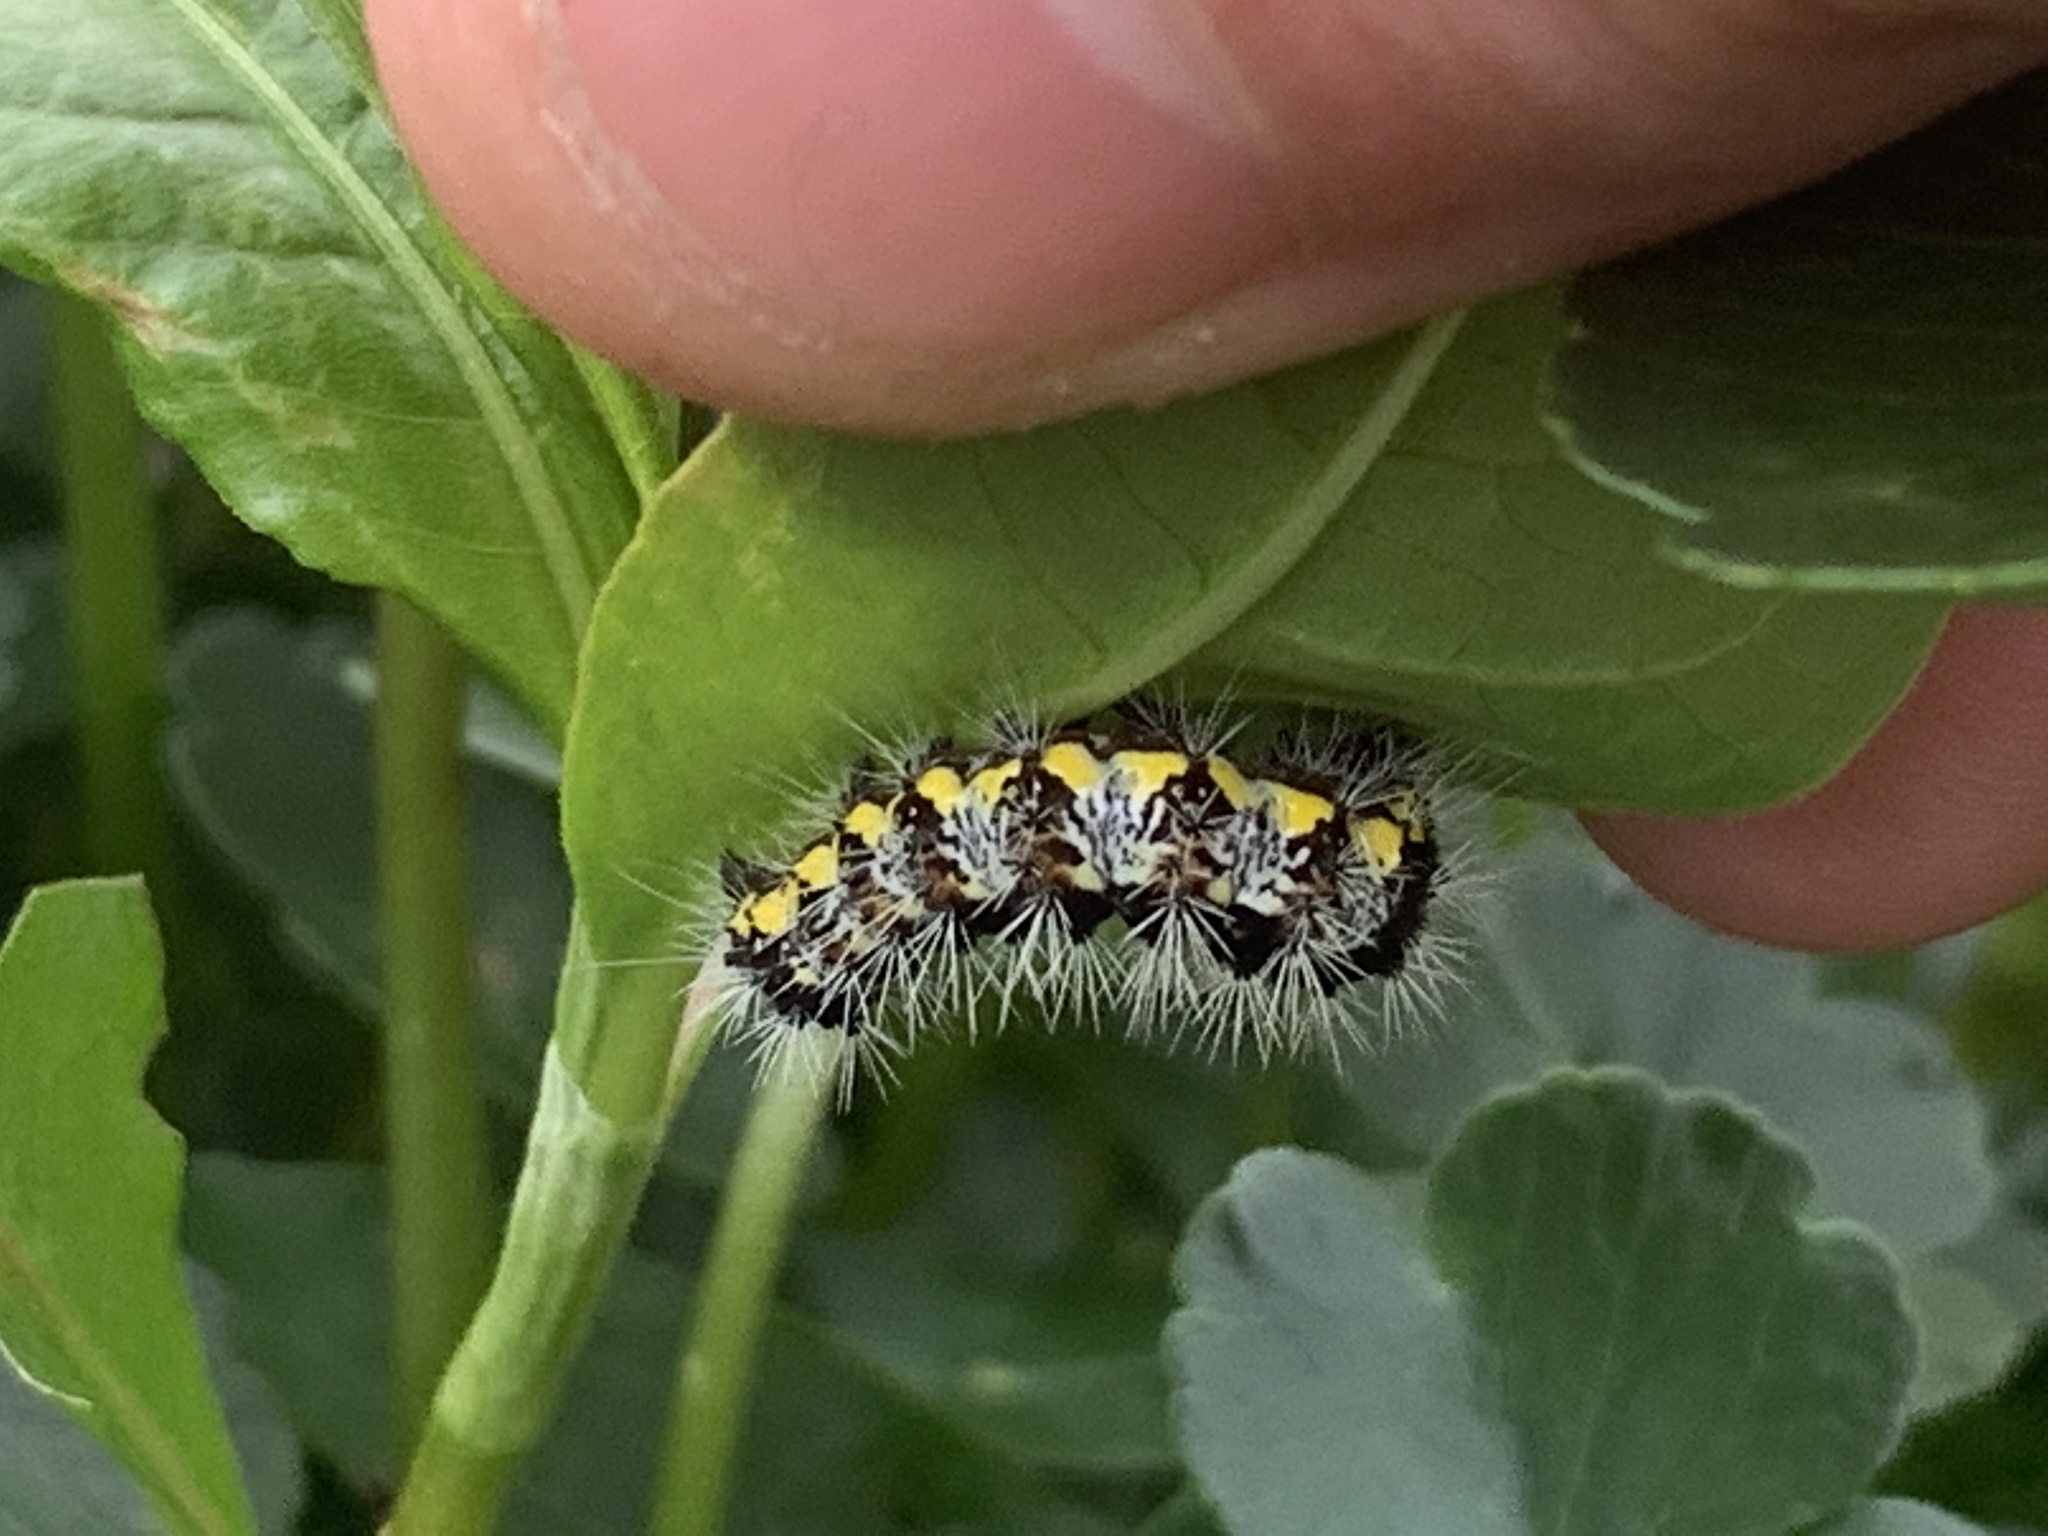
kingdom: Animalia
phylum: Arthropoda
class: Insecta
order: Lepidoptera
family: Noctuidae
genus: Acronicta
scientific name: Acronicta oblinita
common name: Smeared dagger
